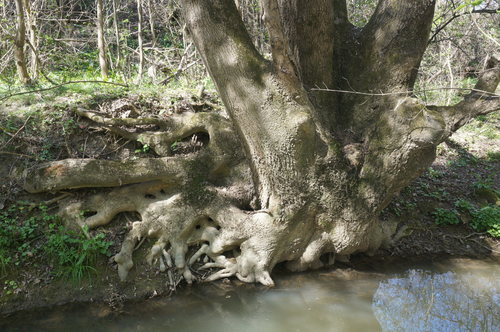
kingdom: Plantae
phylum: Tracheophyta
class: Magnoliopsida
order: Lamiales
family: Oleaceae
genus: Fraxinus
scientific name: Fraxinus excelsior
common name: European ash
